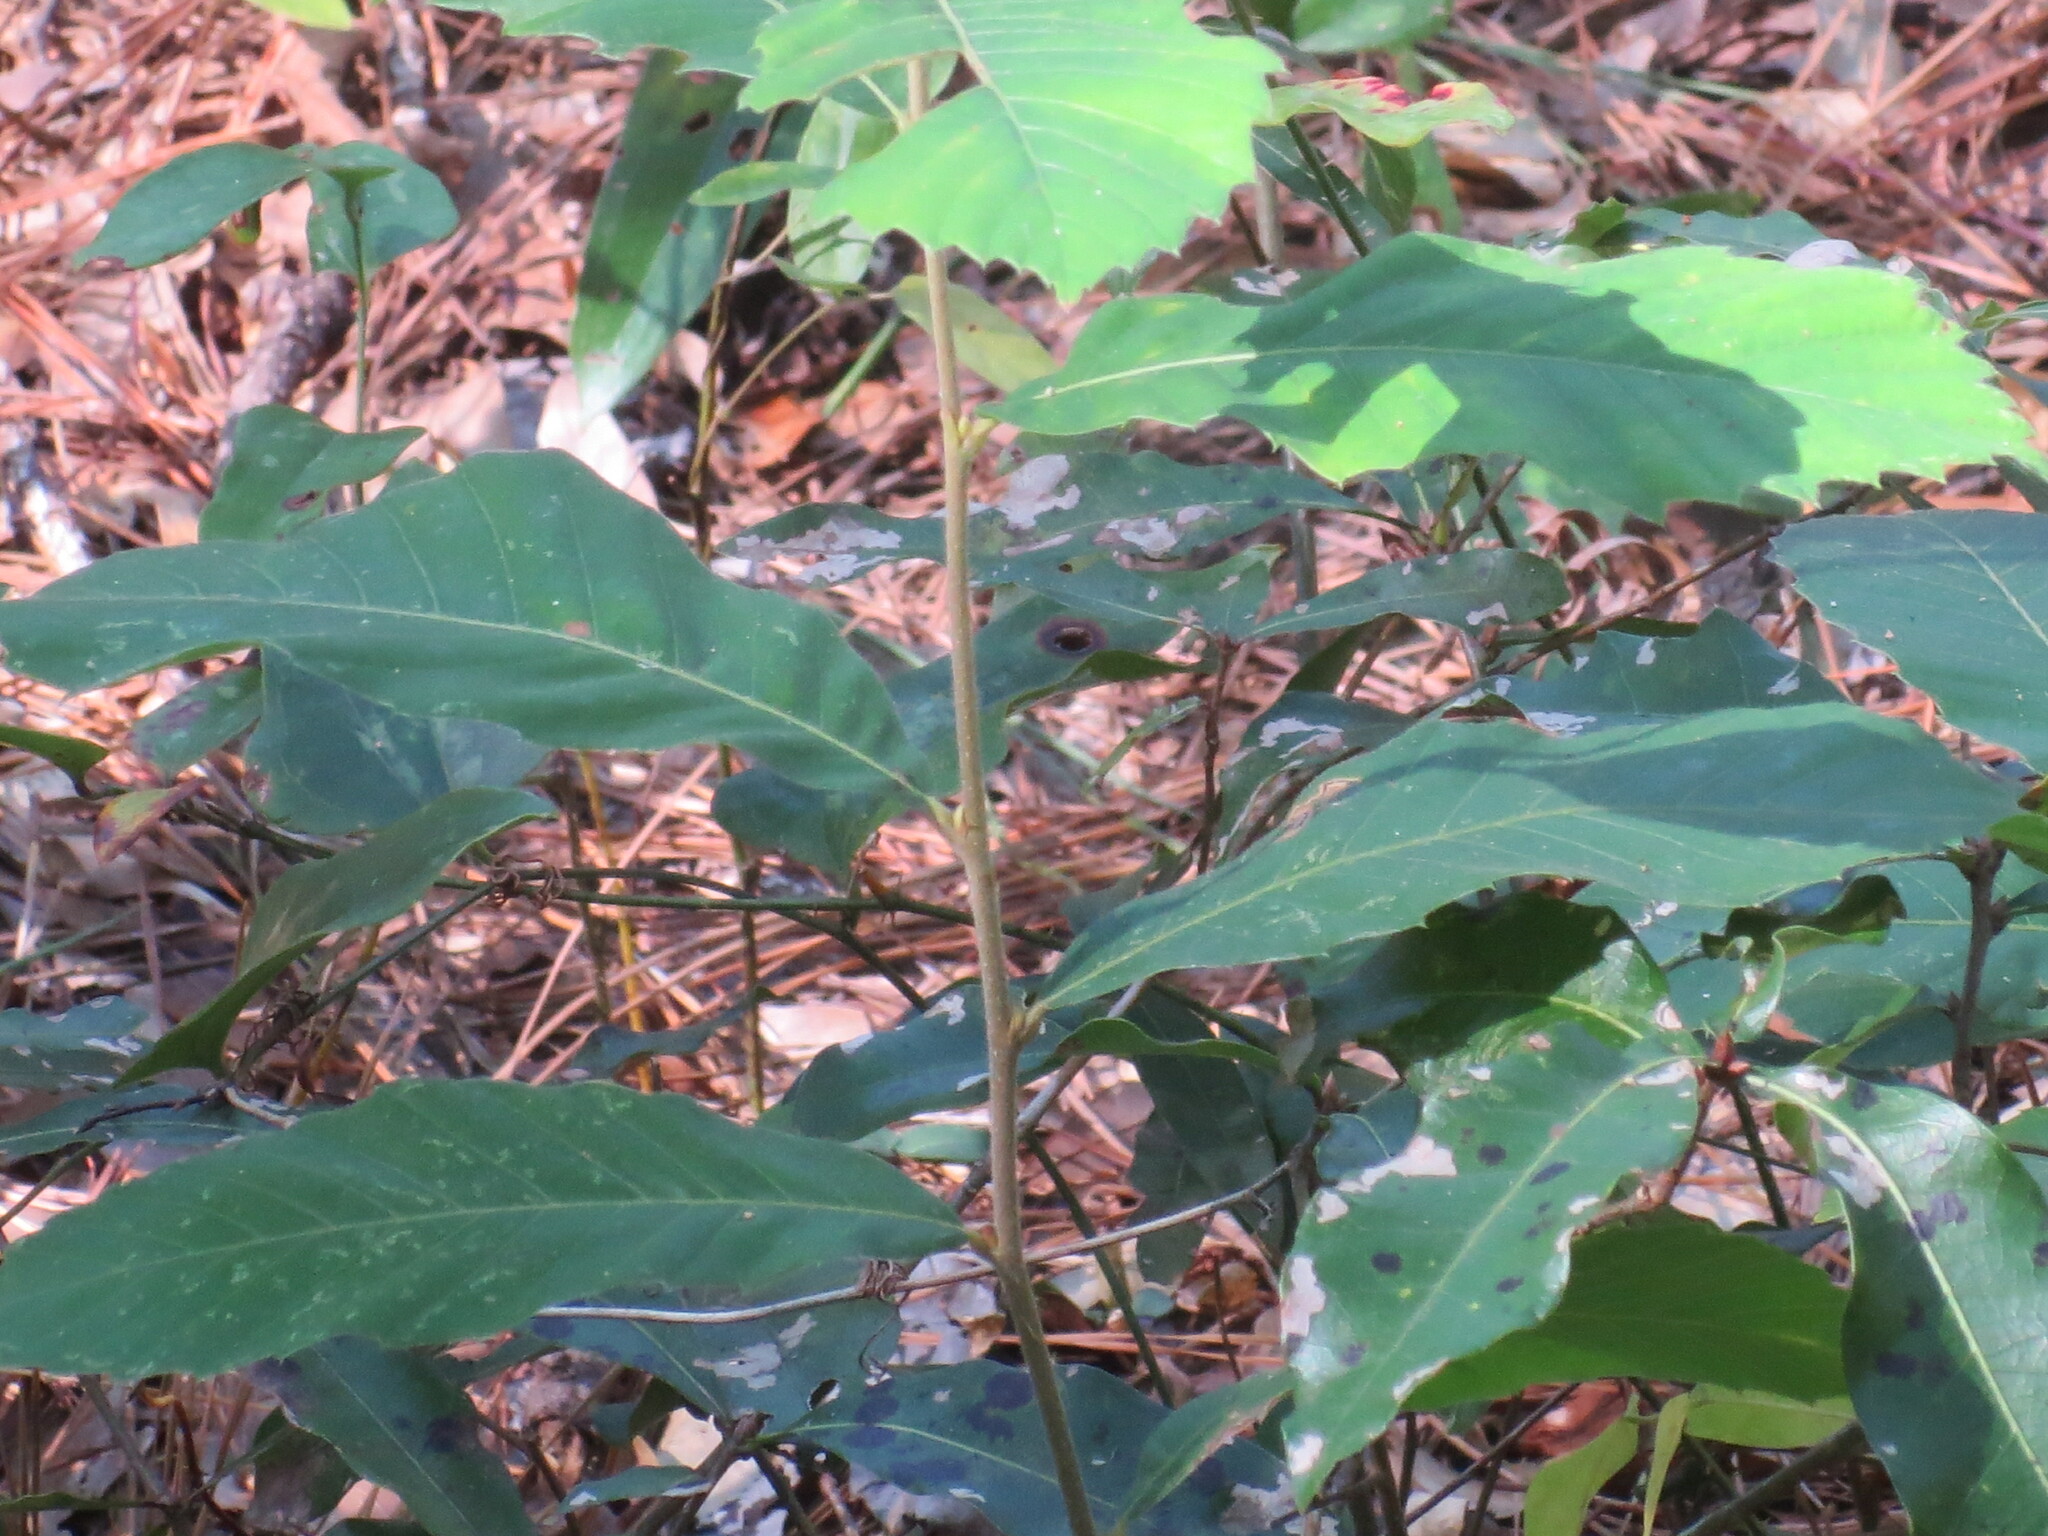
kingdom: Plantae
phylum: Tracheophyta
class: Magnoliopsida
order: Fagales
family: Fagaceae
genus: Castanea
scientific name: Castanea pumila
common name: Chinkapin
